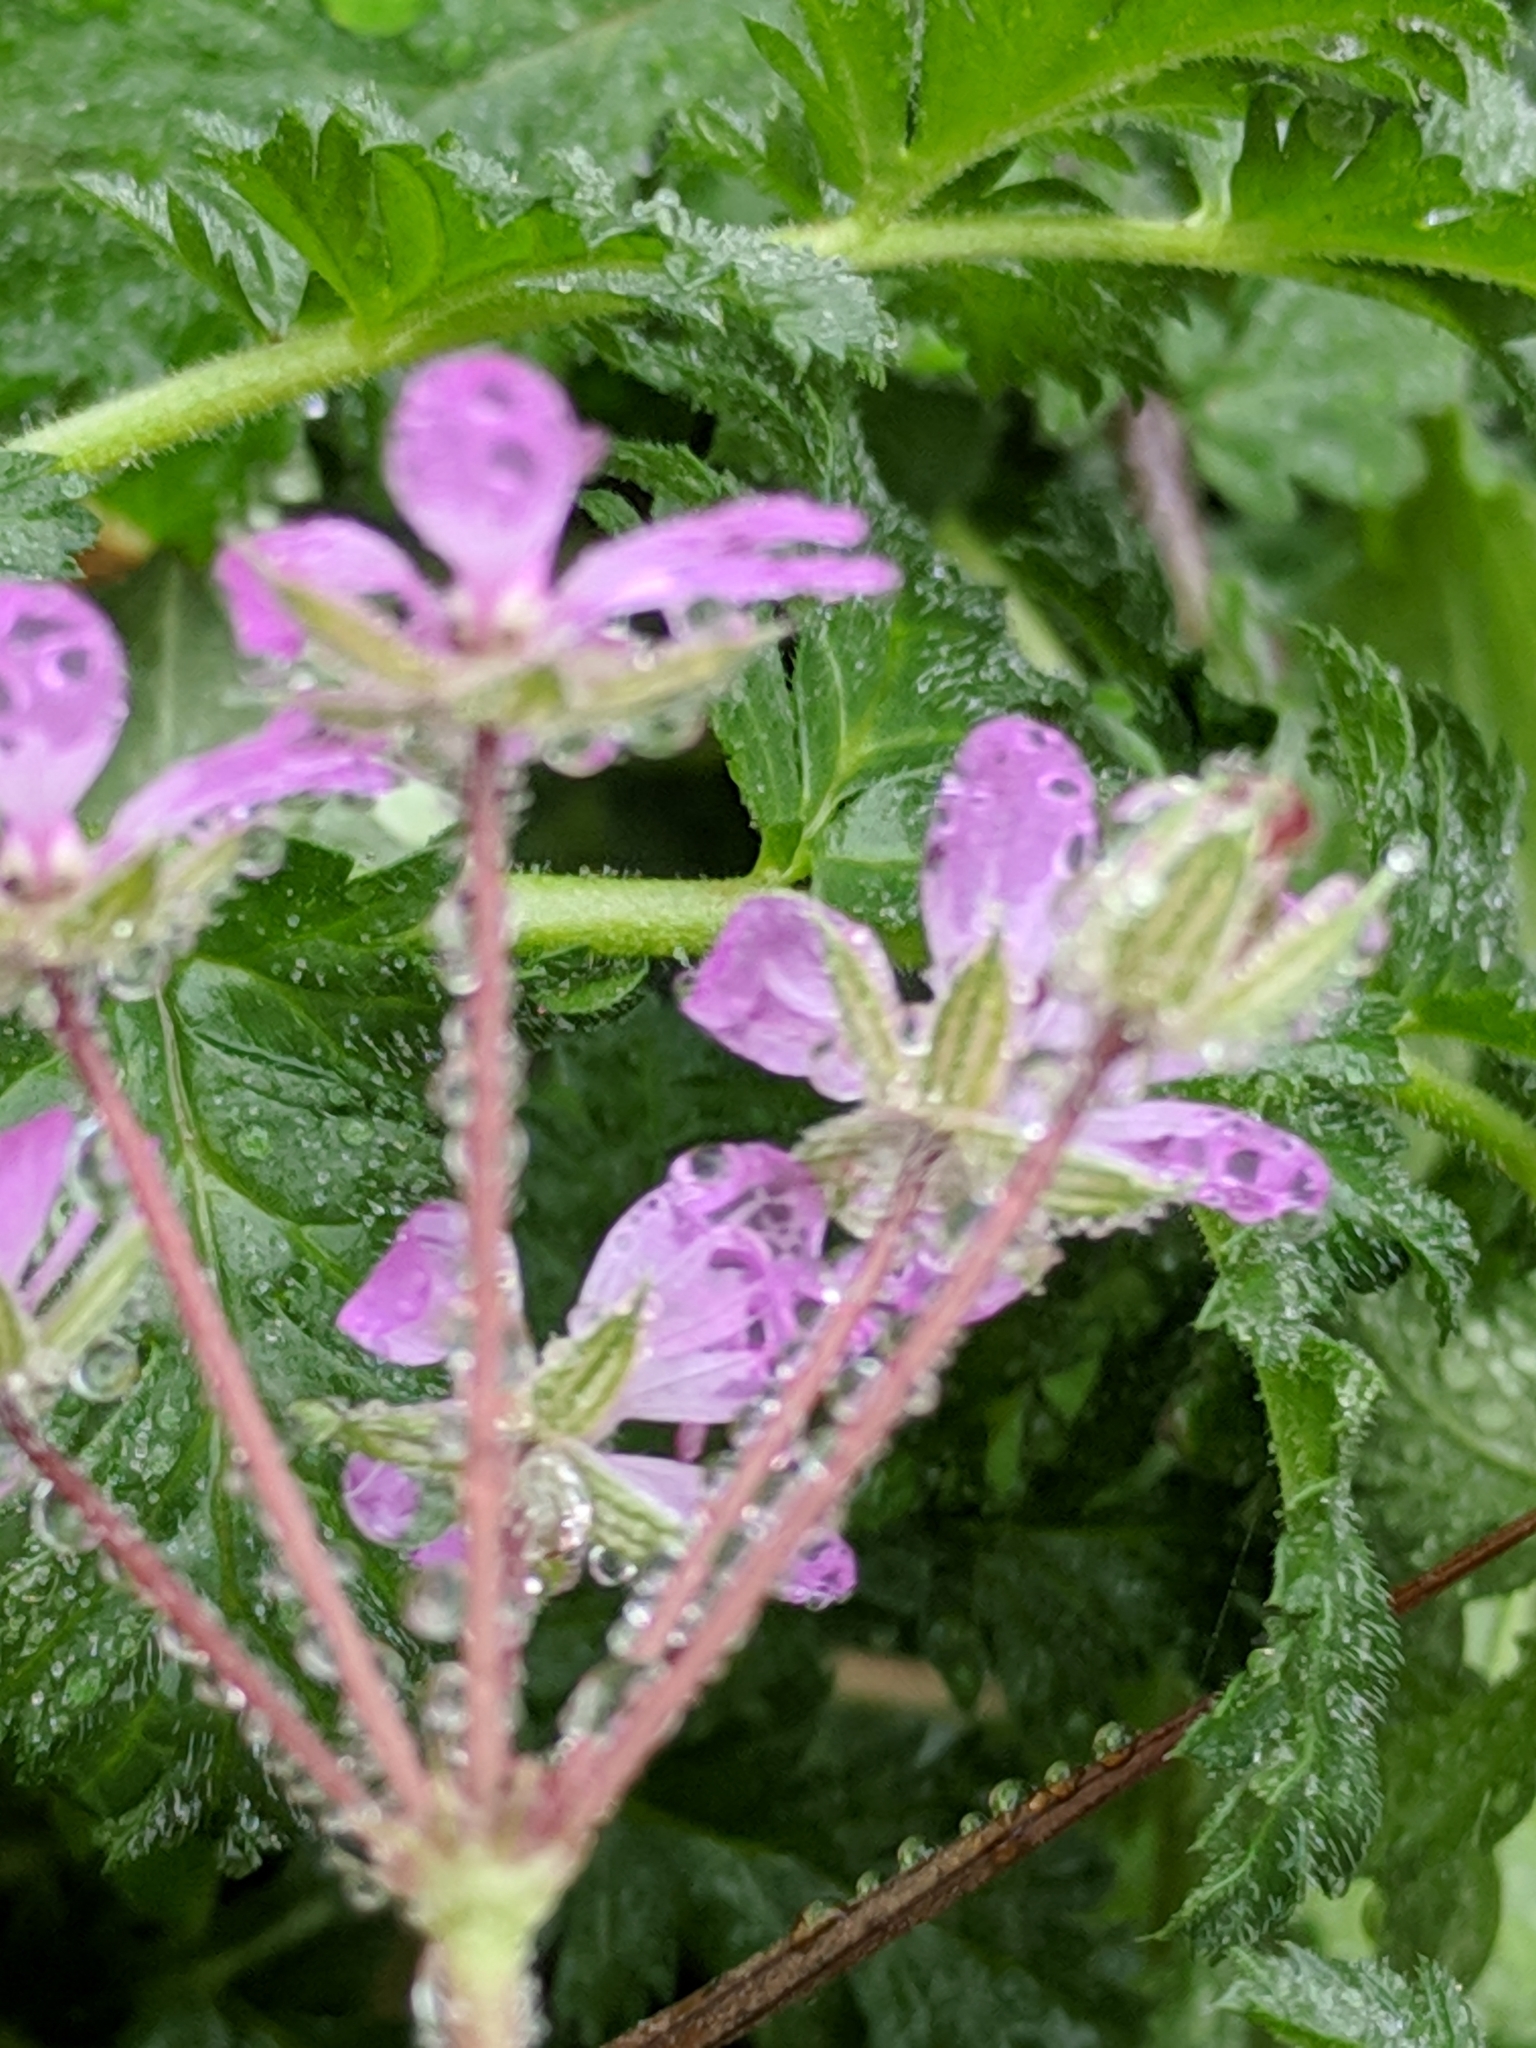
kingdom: Plantae
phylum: Tracheophyta
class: Magnoliopsida
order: Geraniales
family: Geraniaceae
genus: Erodium
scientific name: Erodium cicutarium
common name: Common stork's-bill
